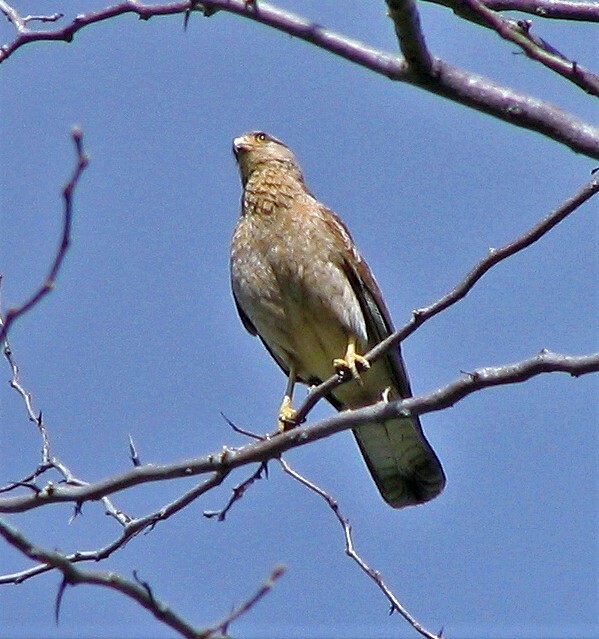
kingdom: Animalia
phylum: Chordata
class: Aves
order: Falconiformes
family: Falconidae
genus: Daptrius
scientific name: Daptrius
